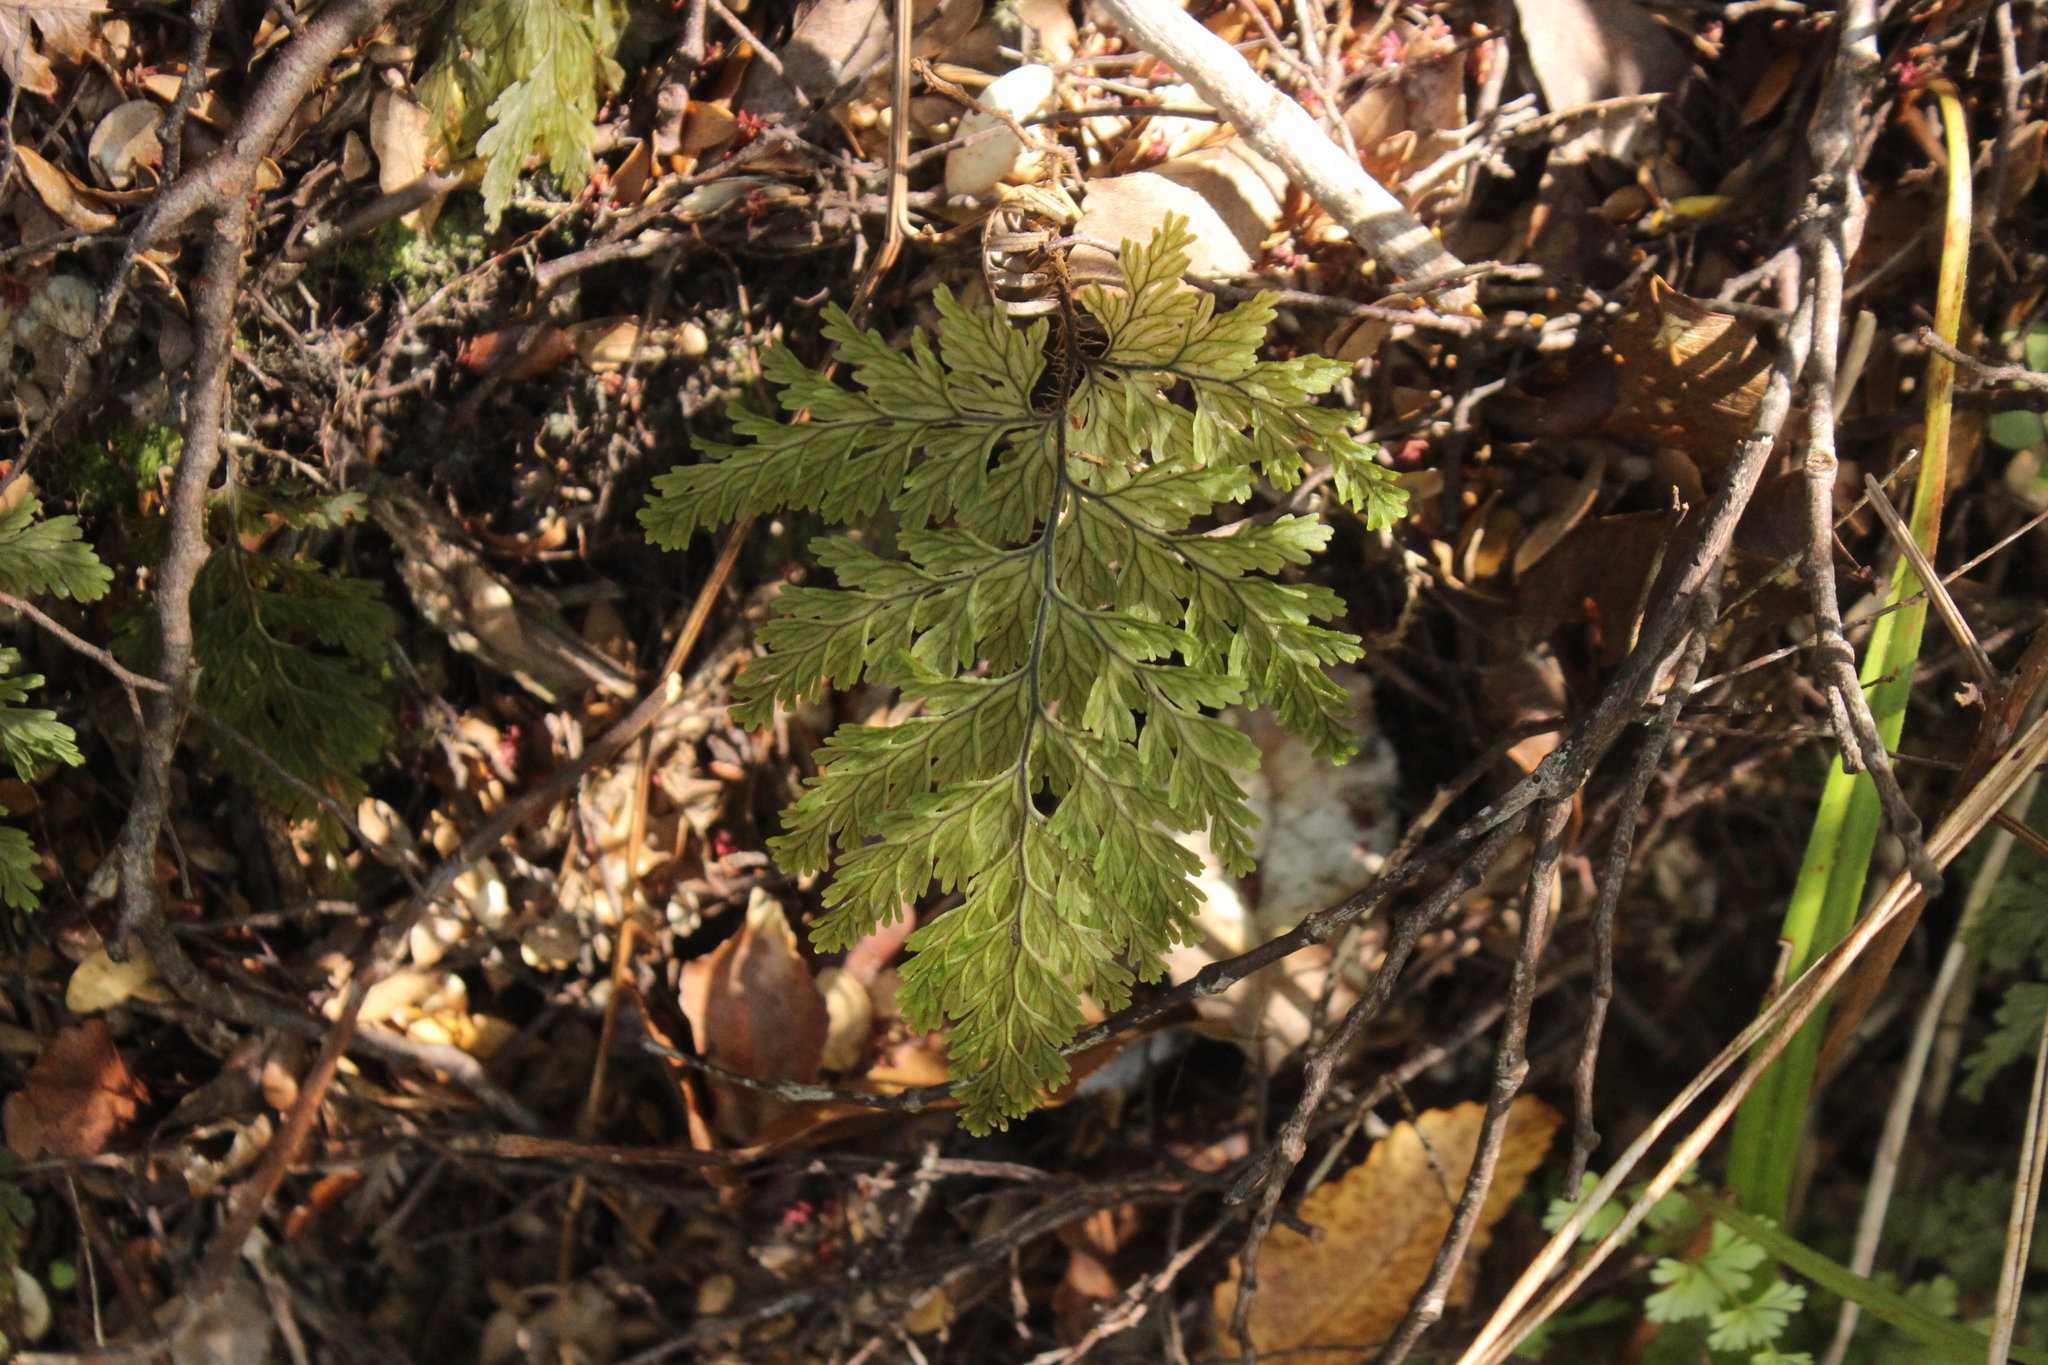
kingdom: Plantae
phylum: Tracheophyta
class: Polypodiopsida
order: Hymenophyllales
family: Hymenophyllaceae
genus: Hymenophyllum
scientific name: Hymenophyllum scabrum
